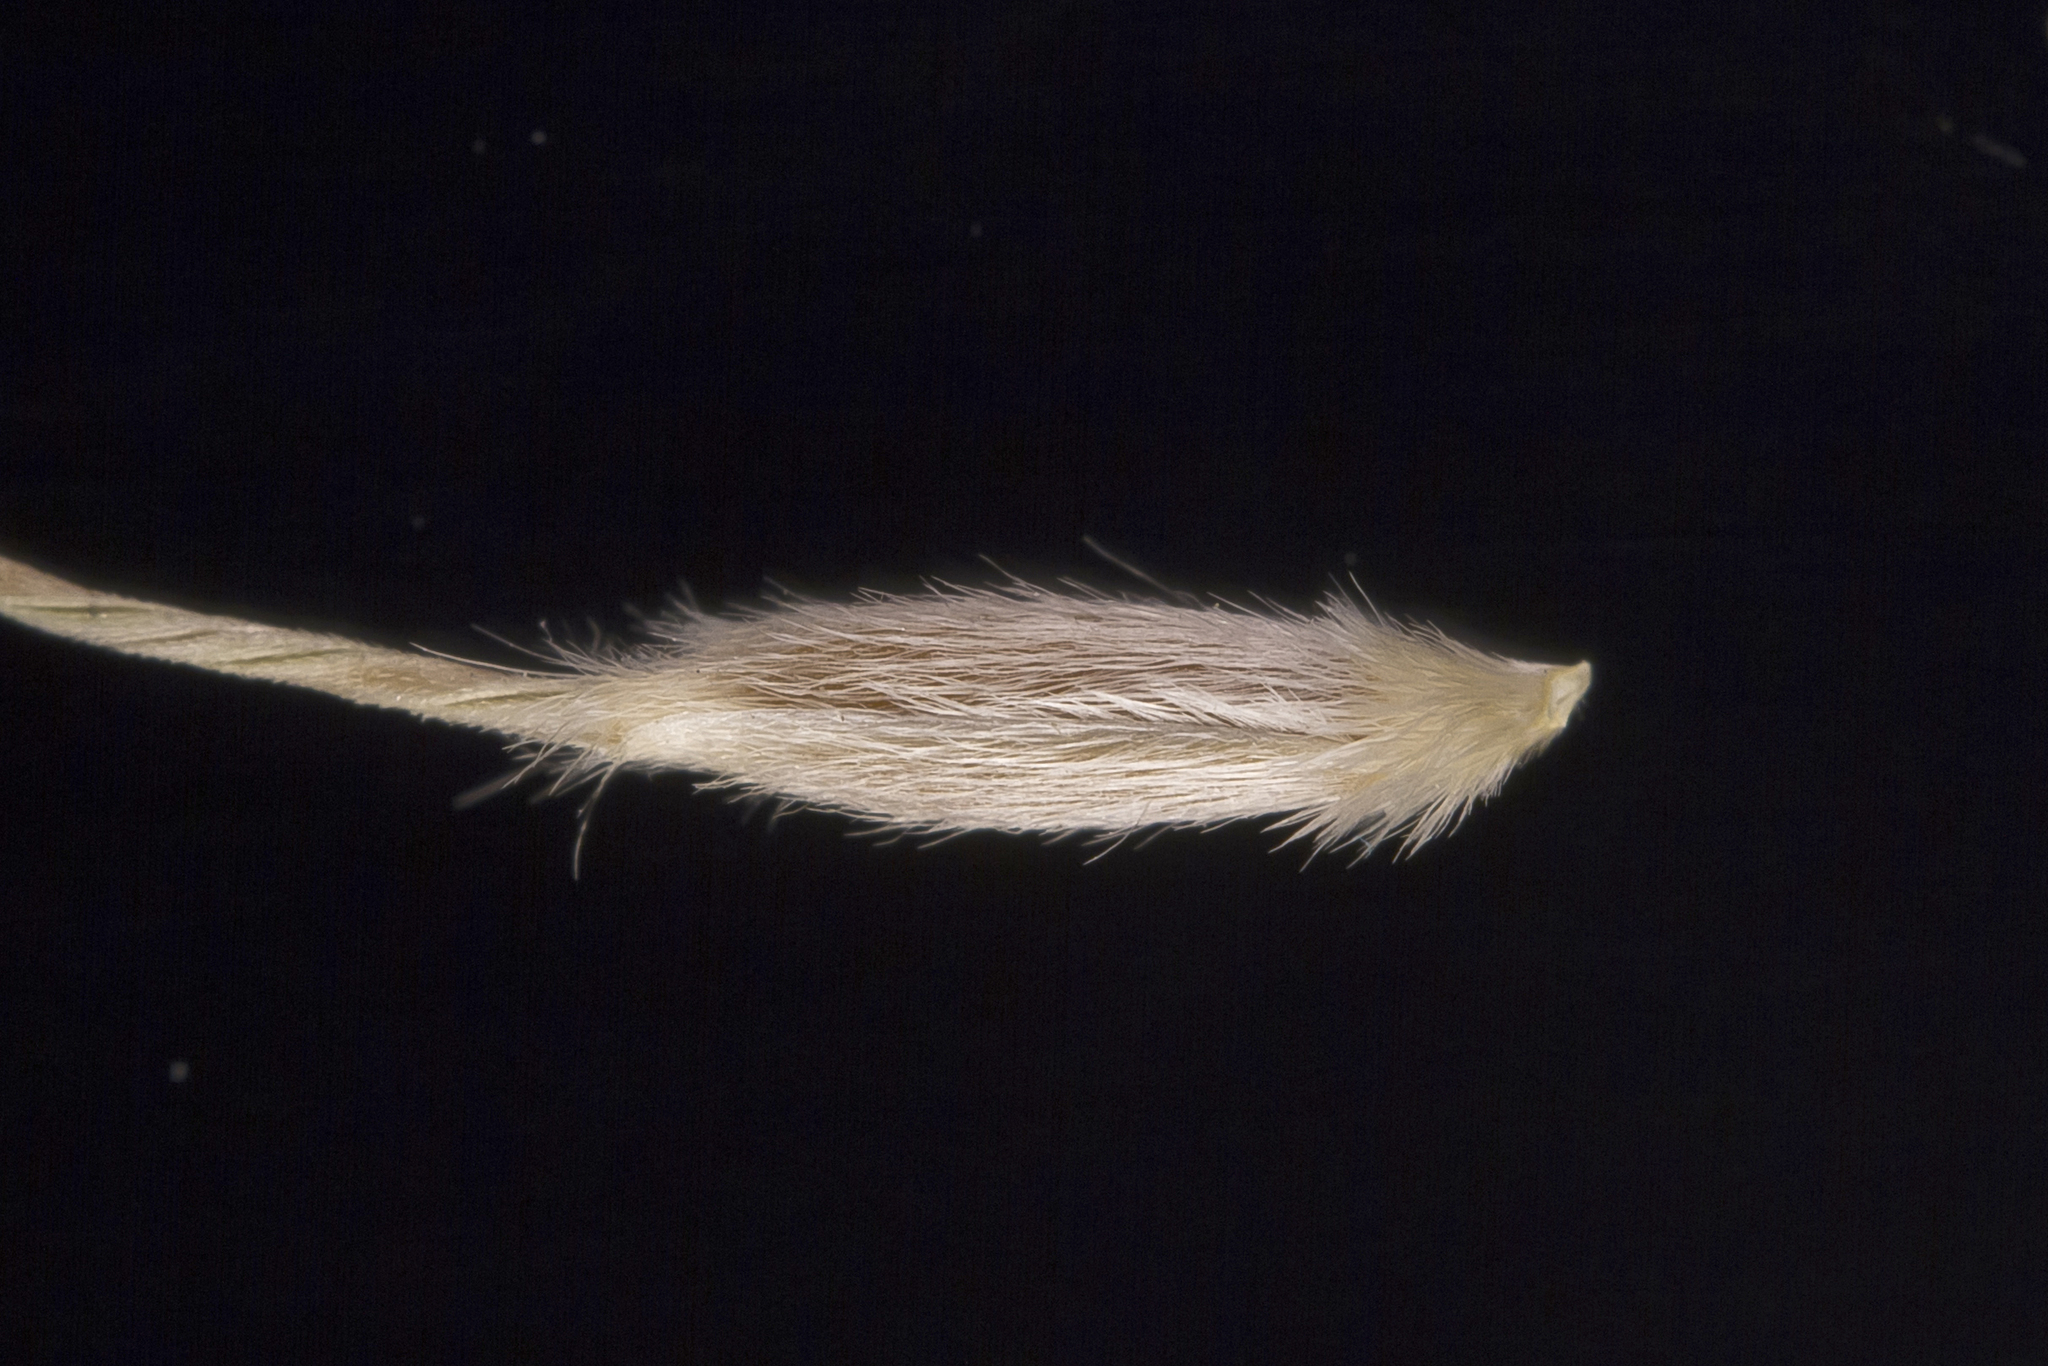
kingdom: Plantae
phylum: Tracheophyta
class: Liliopsida
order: Poales
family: Poaceae
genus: Austrostipa
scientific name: Austrostipa gibbosa
